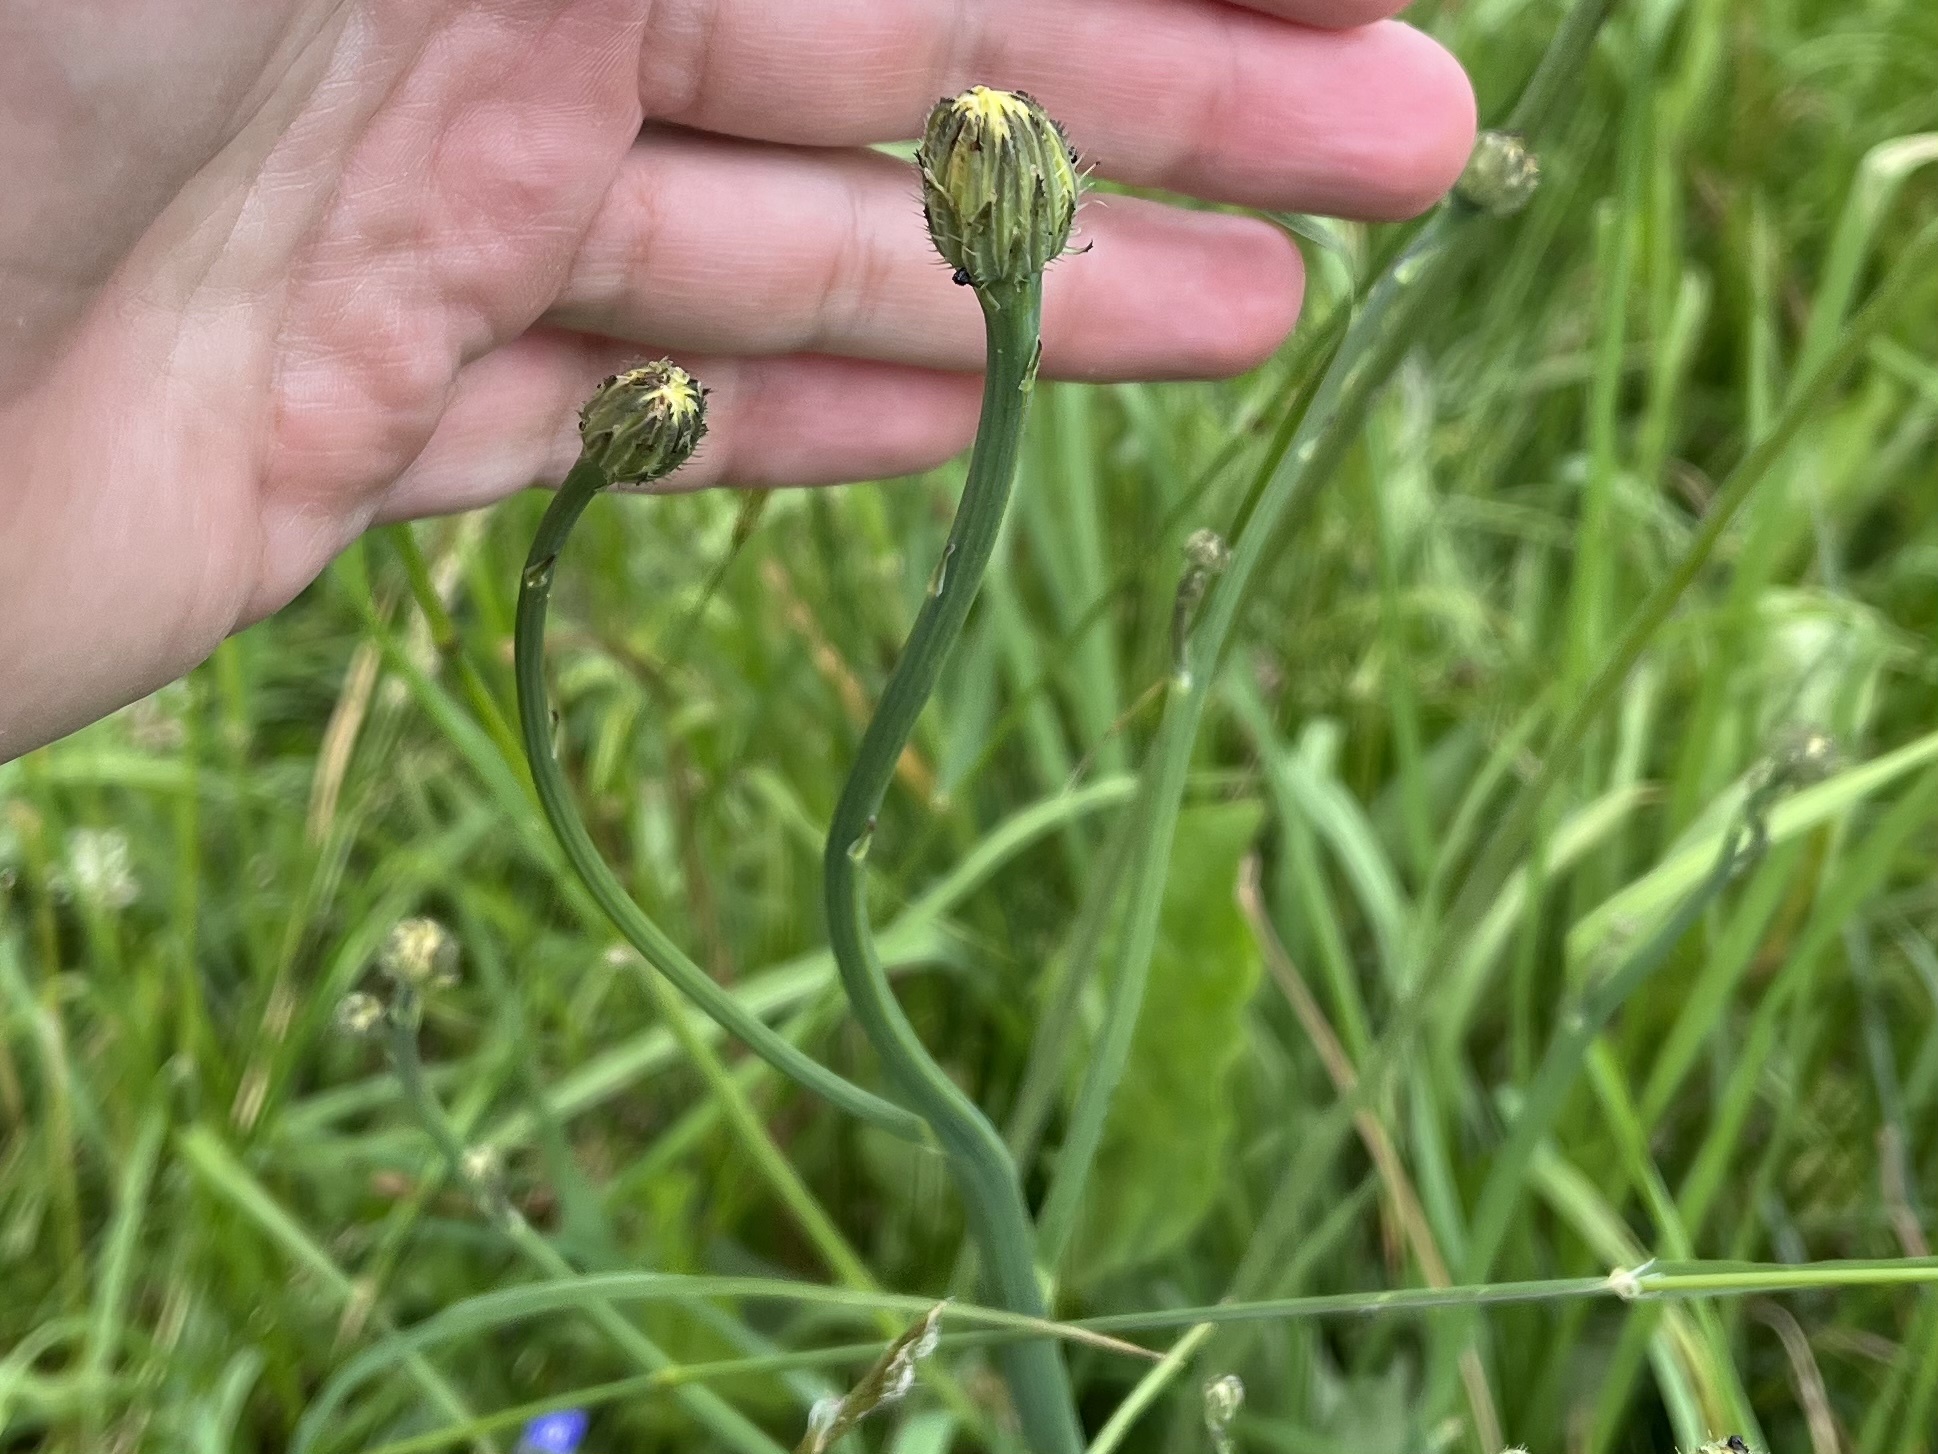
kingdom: Plantae
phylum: Tracheophyta
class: Magnoliopsida
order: Asterales
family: Asteraceae
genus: Hypochaeris
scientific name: Hypochaeris radicata
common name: Flatweed
